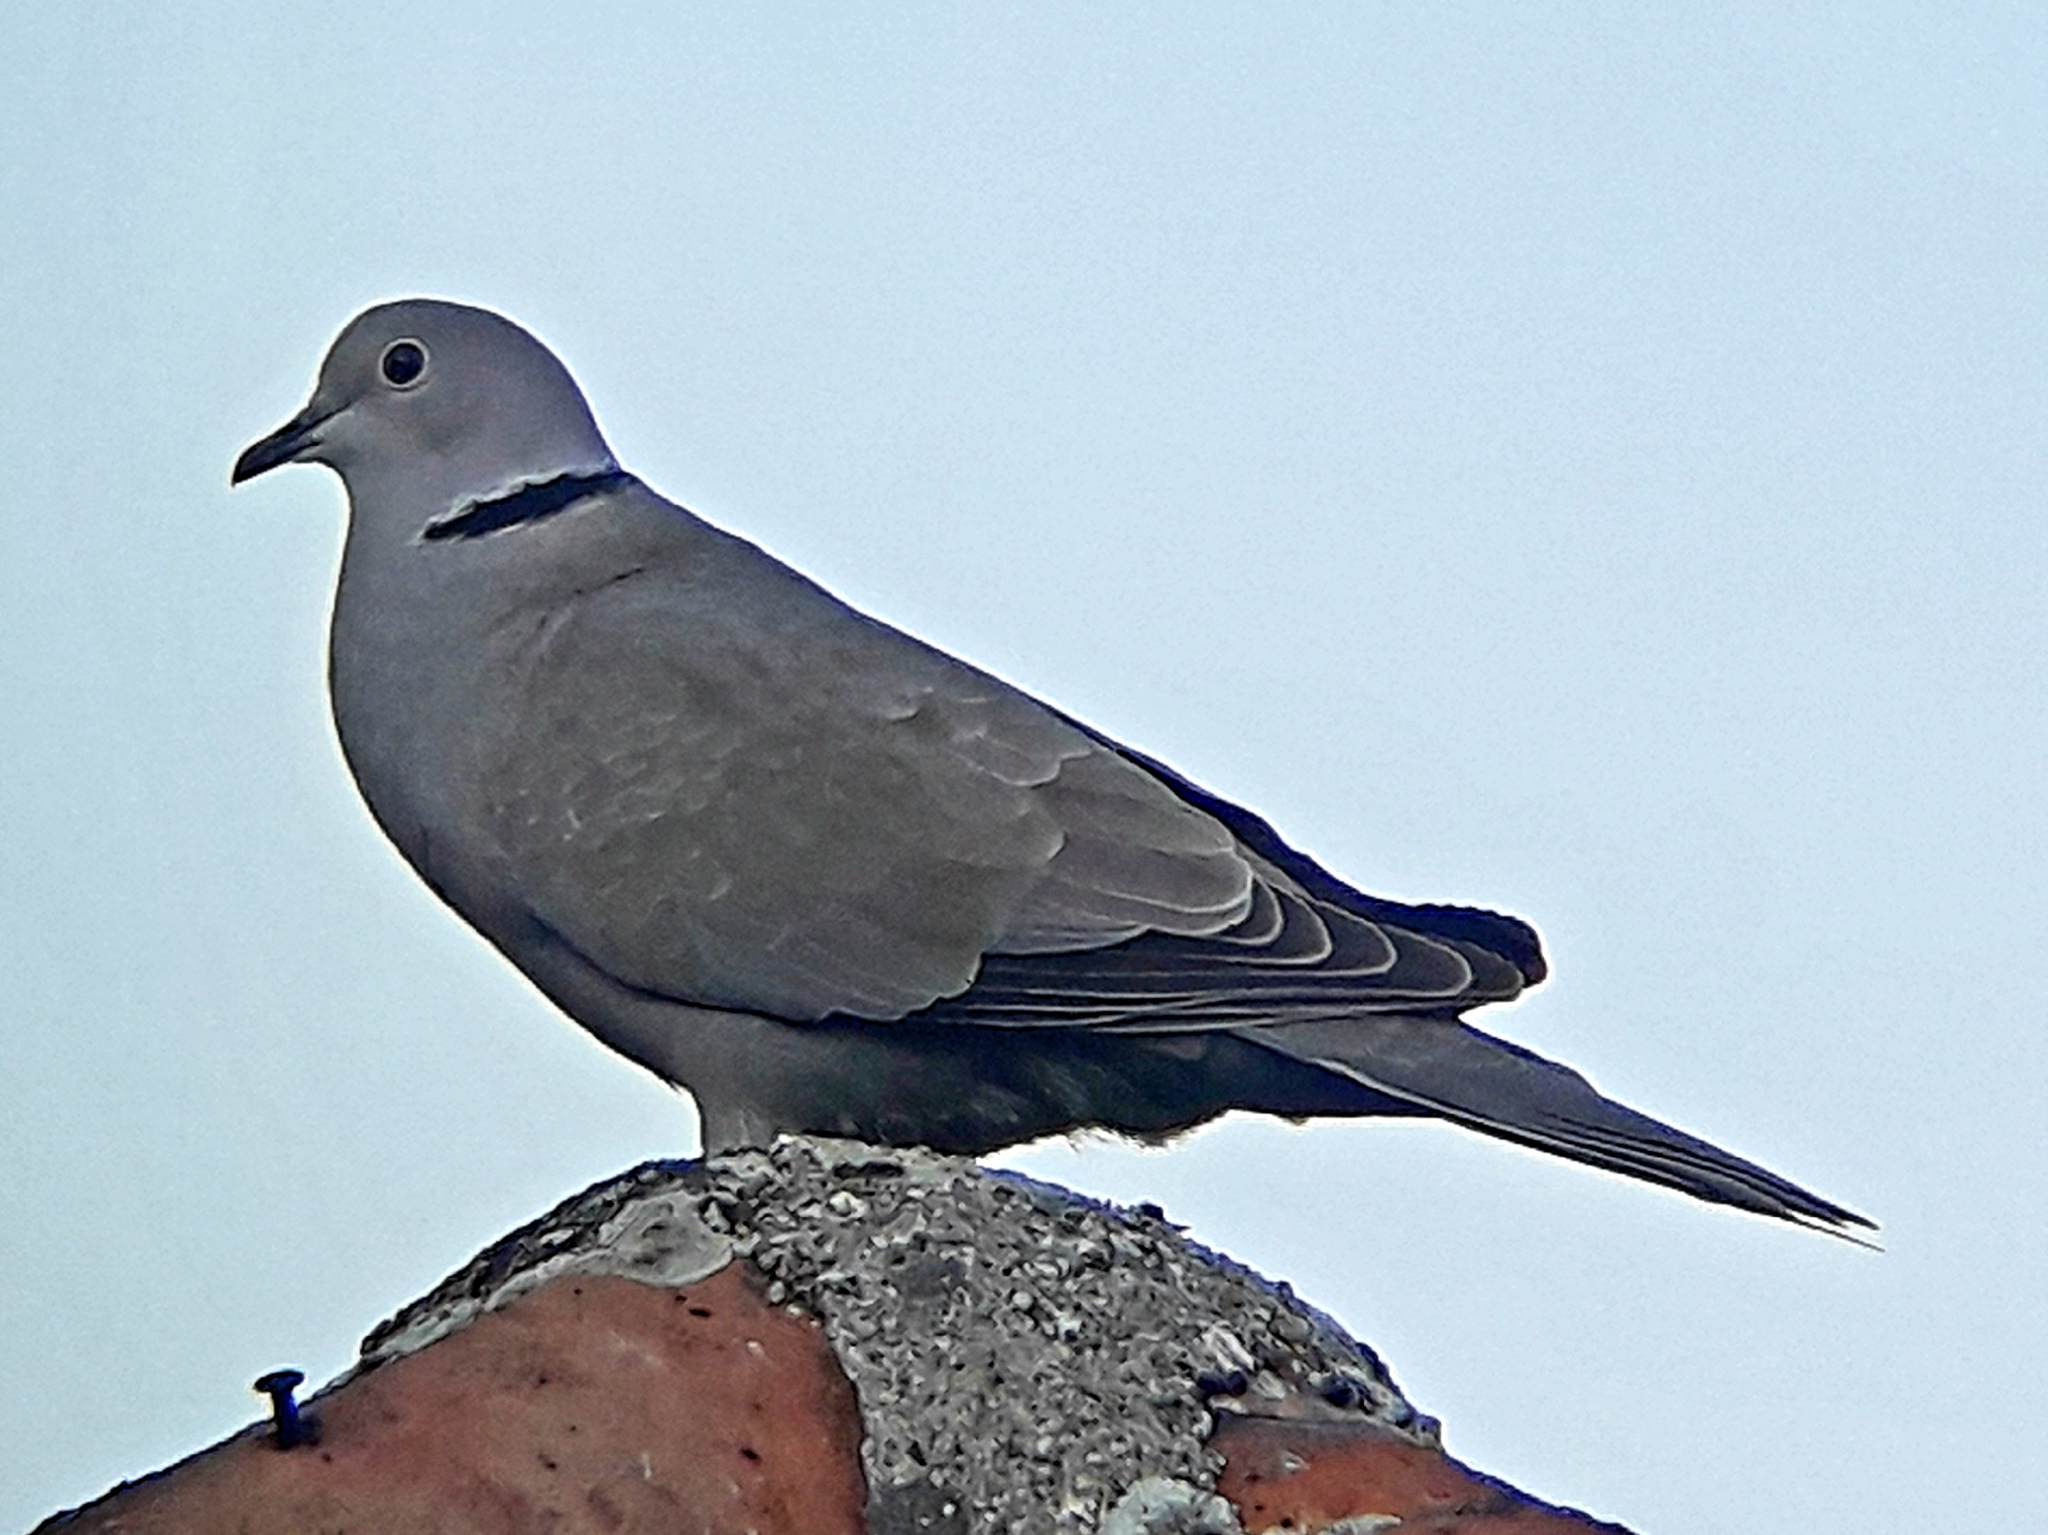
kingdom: Animalia
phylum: Chordata
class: Aves
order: Columbiformes
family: Columbidae
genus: Streptopelia
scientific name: Streptopelia decaocto
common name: Eurasian collared dove
